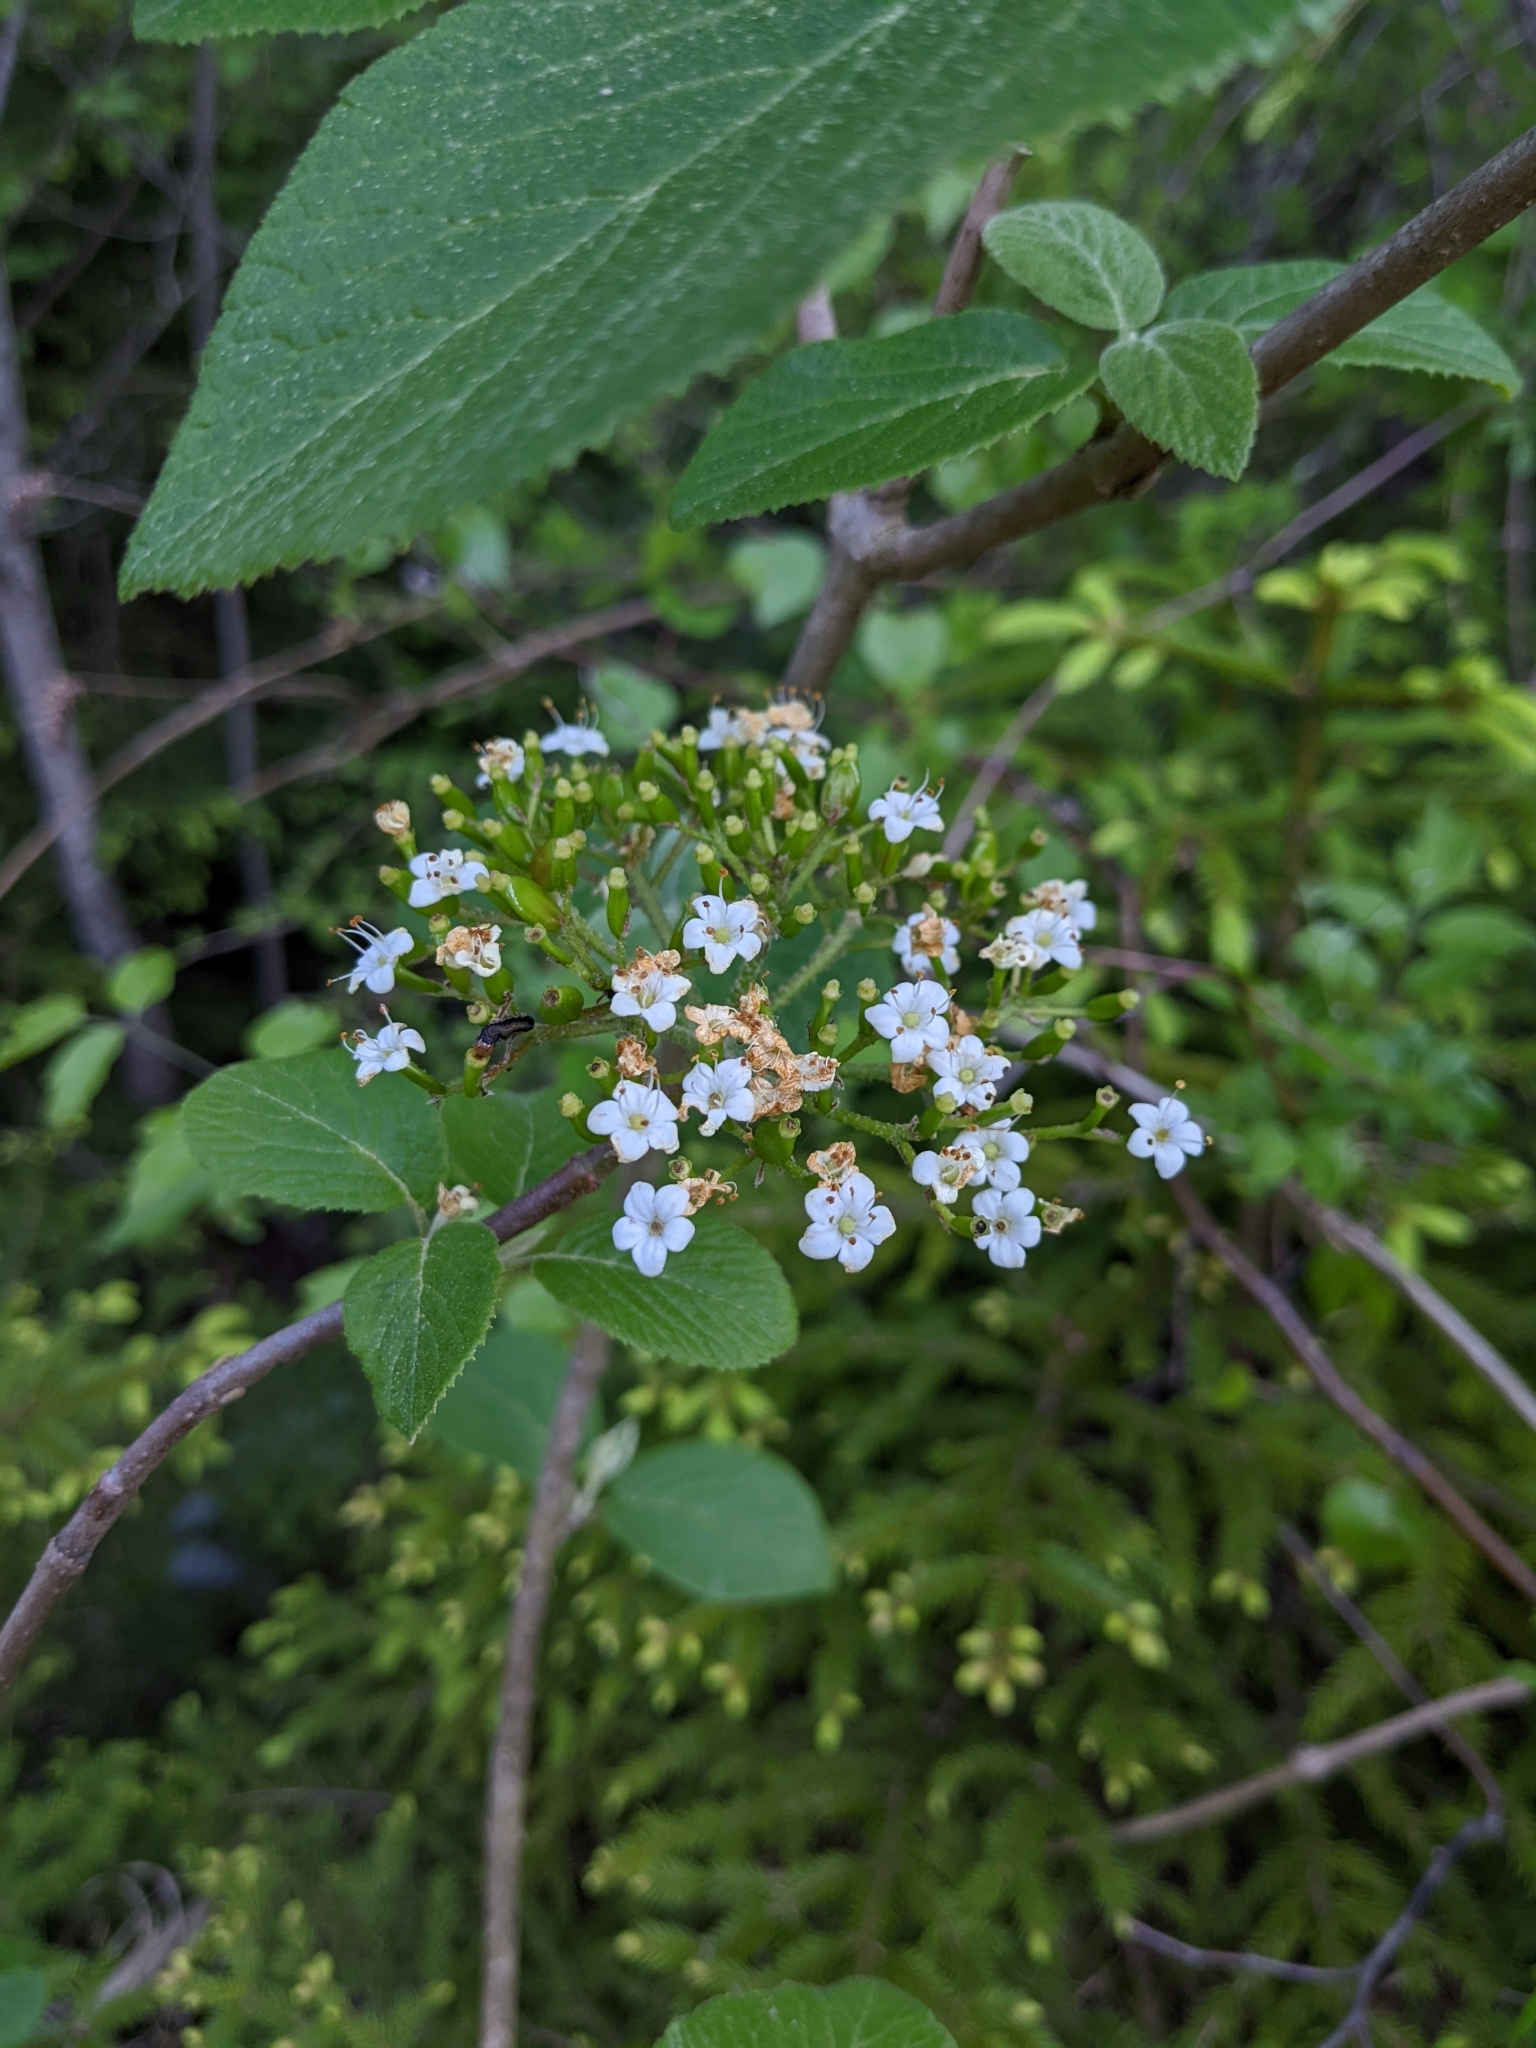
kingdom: Plantae
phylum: Tracheophyta
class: Magnoliopsida
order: Dipsacales
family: Viburnaceae
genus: Viburnum
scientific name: Viburnum lantana
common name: Wayfaring tree
